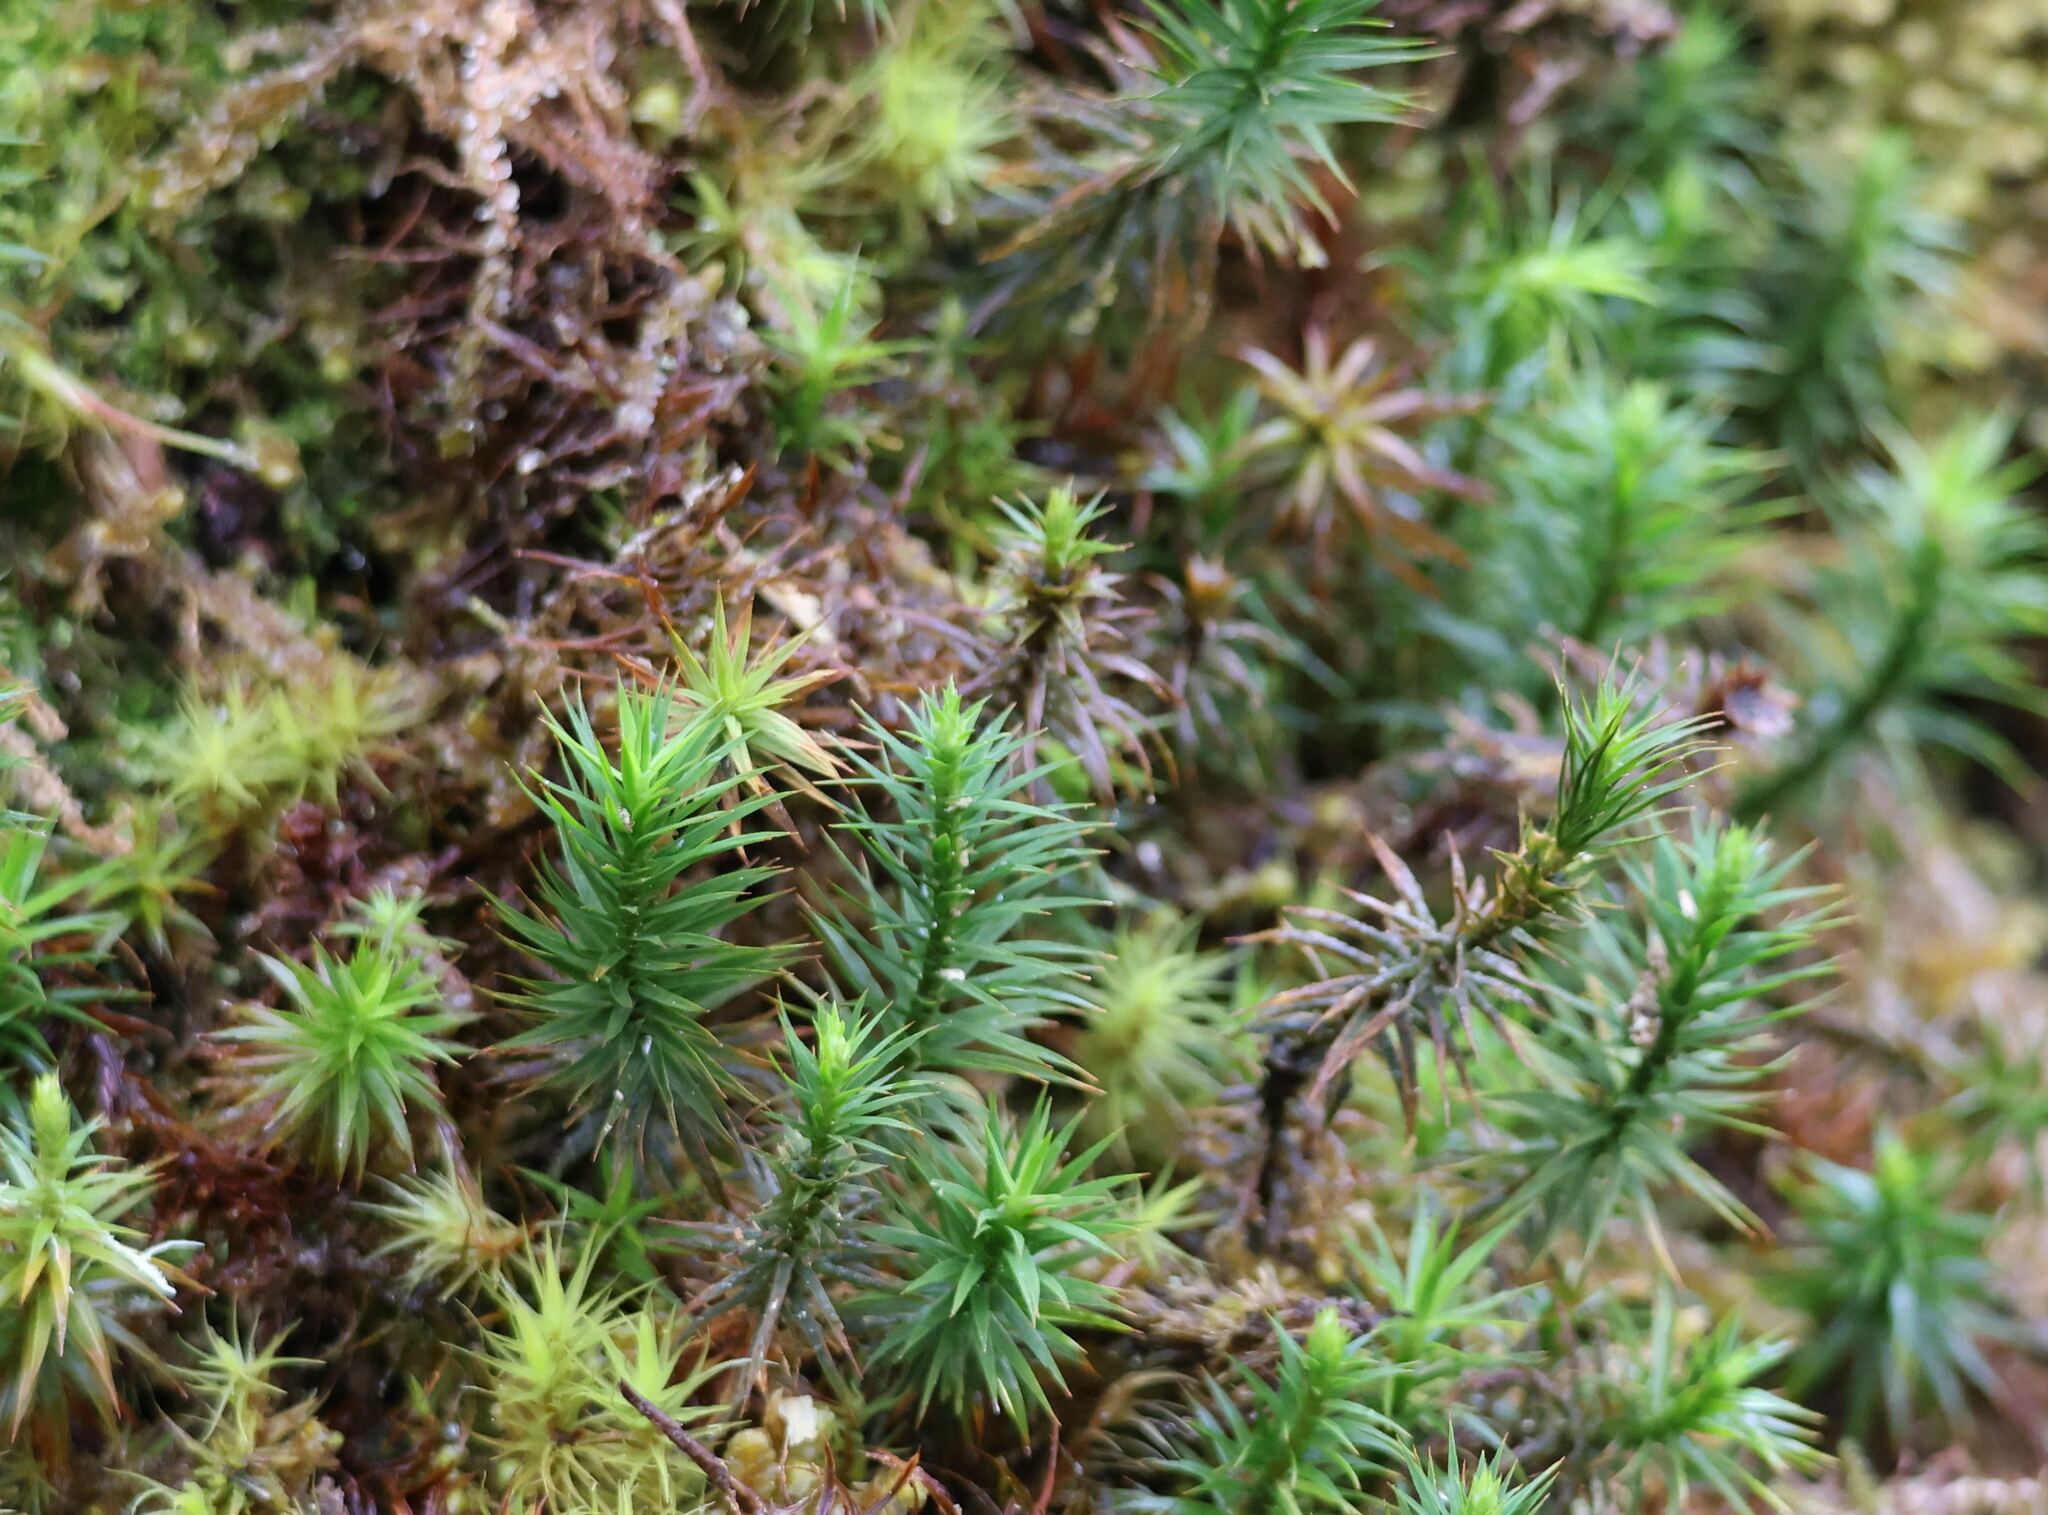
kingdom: Plantae
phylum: Bryophyta
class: Polytrichopsida
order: Polytrichales
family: Polytrichaceae
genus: Polytrichum
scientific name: Polytrichum formosum
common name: Bank haircap moss
